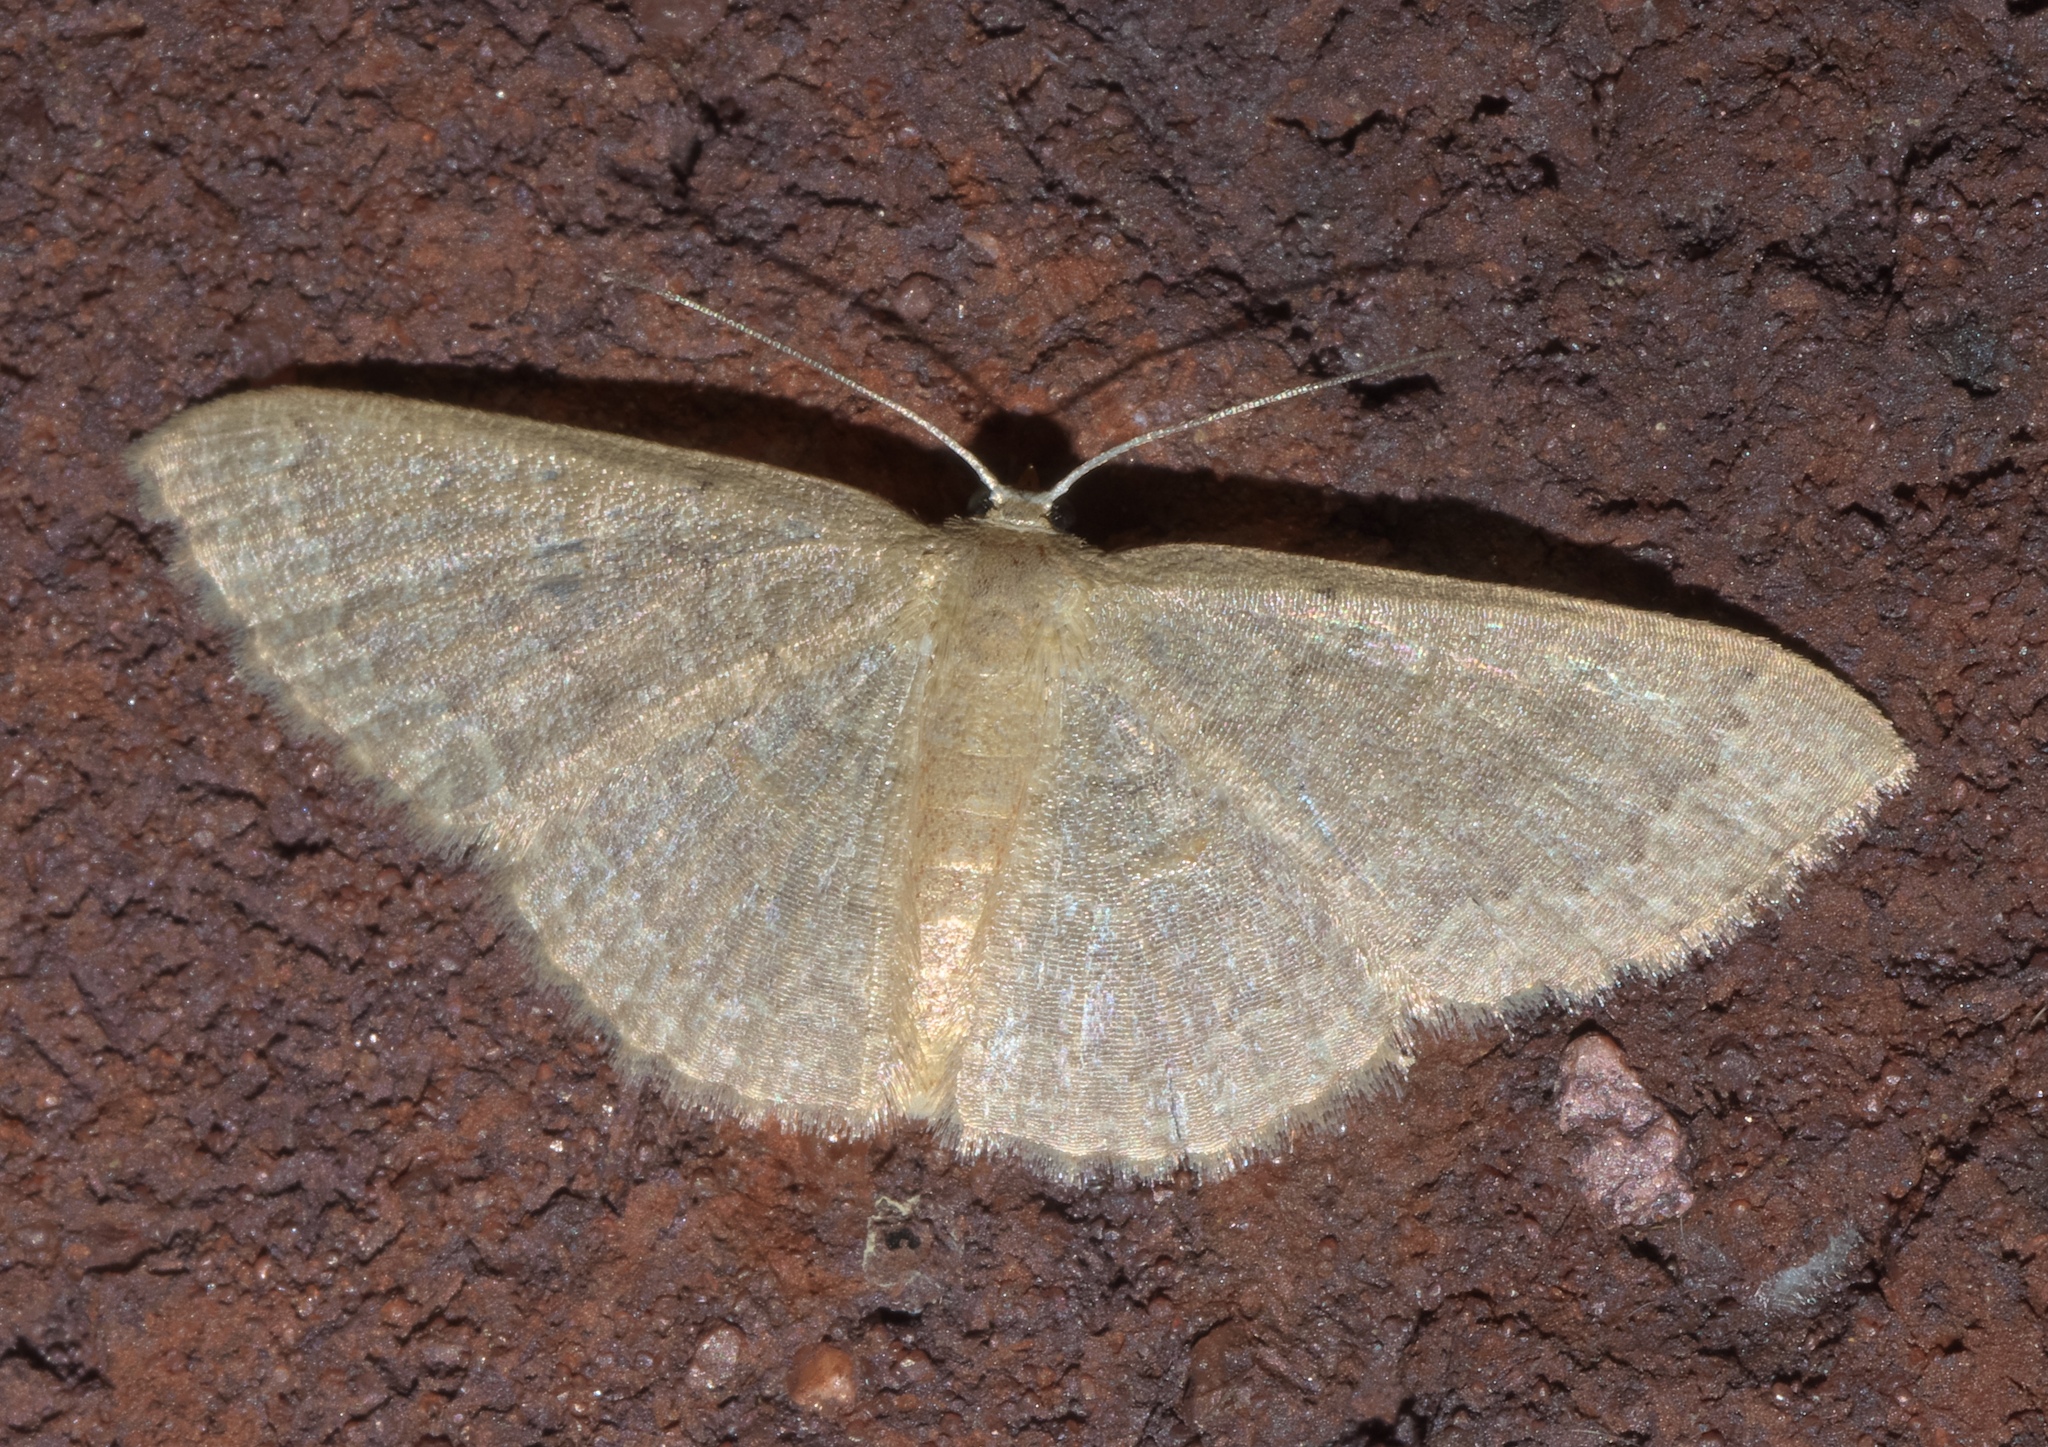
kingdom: Animalia
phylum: Arthropoda
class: Insecta
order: Lepidoptera
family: Geometridae
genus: Pleuroprucha
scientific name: Pleuroprucha insulsaria
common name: Common tan wave
